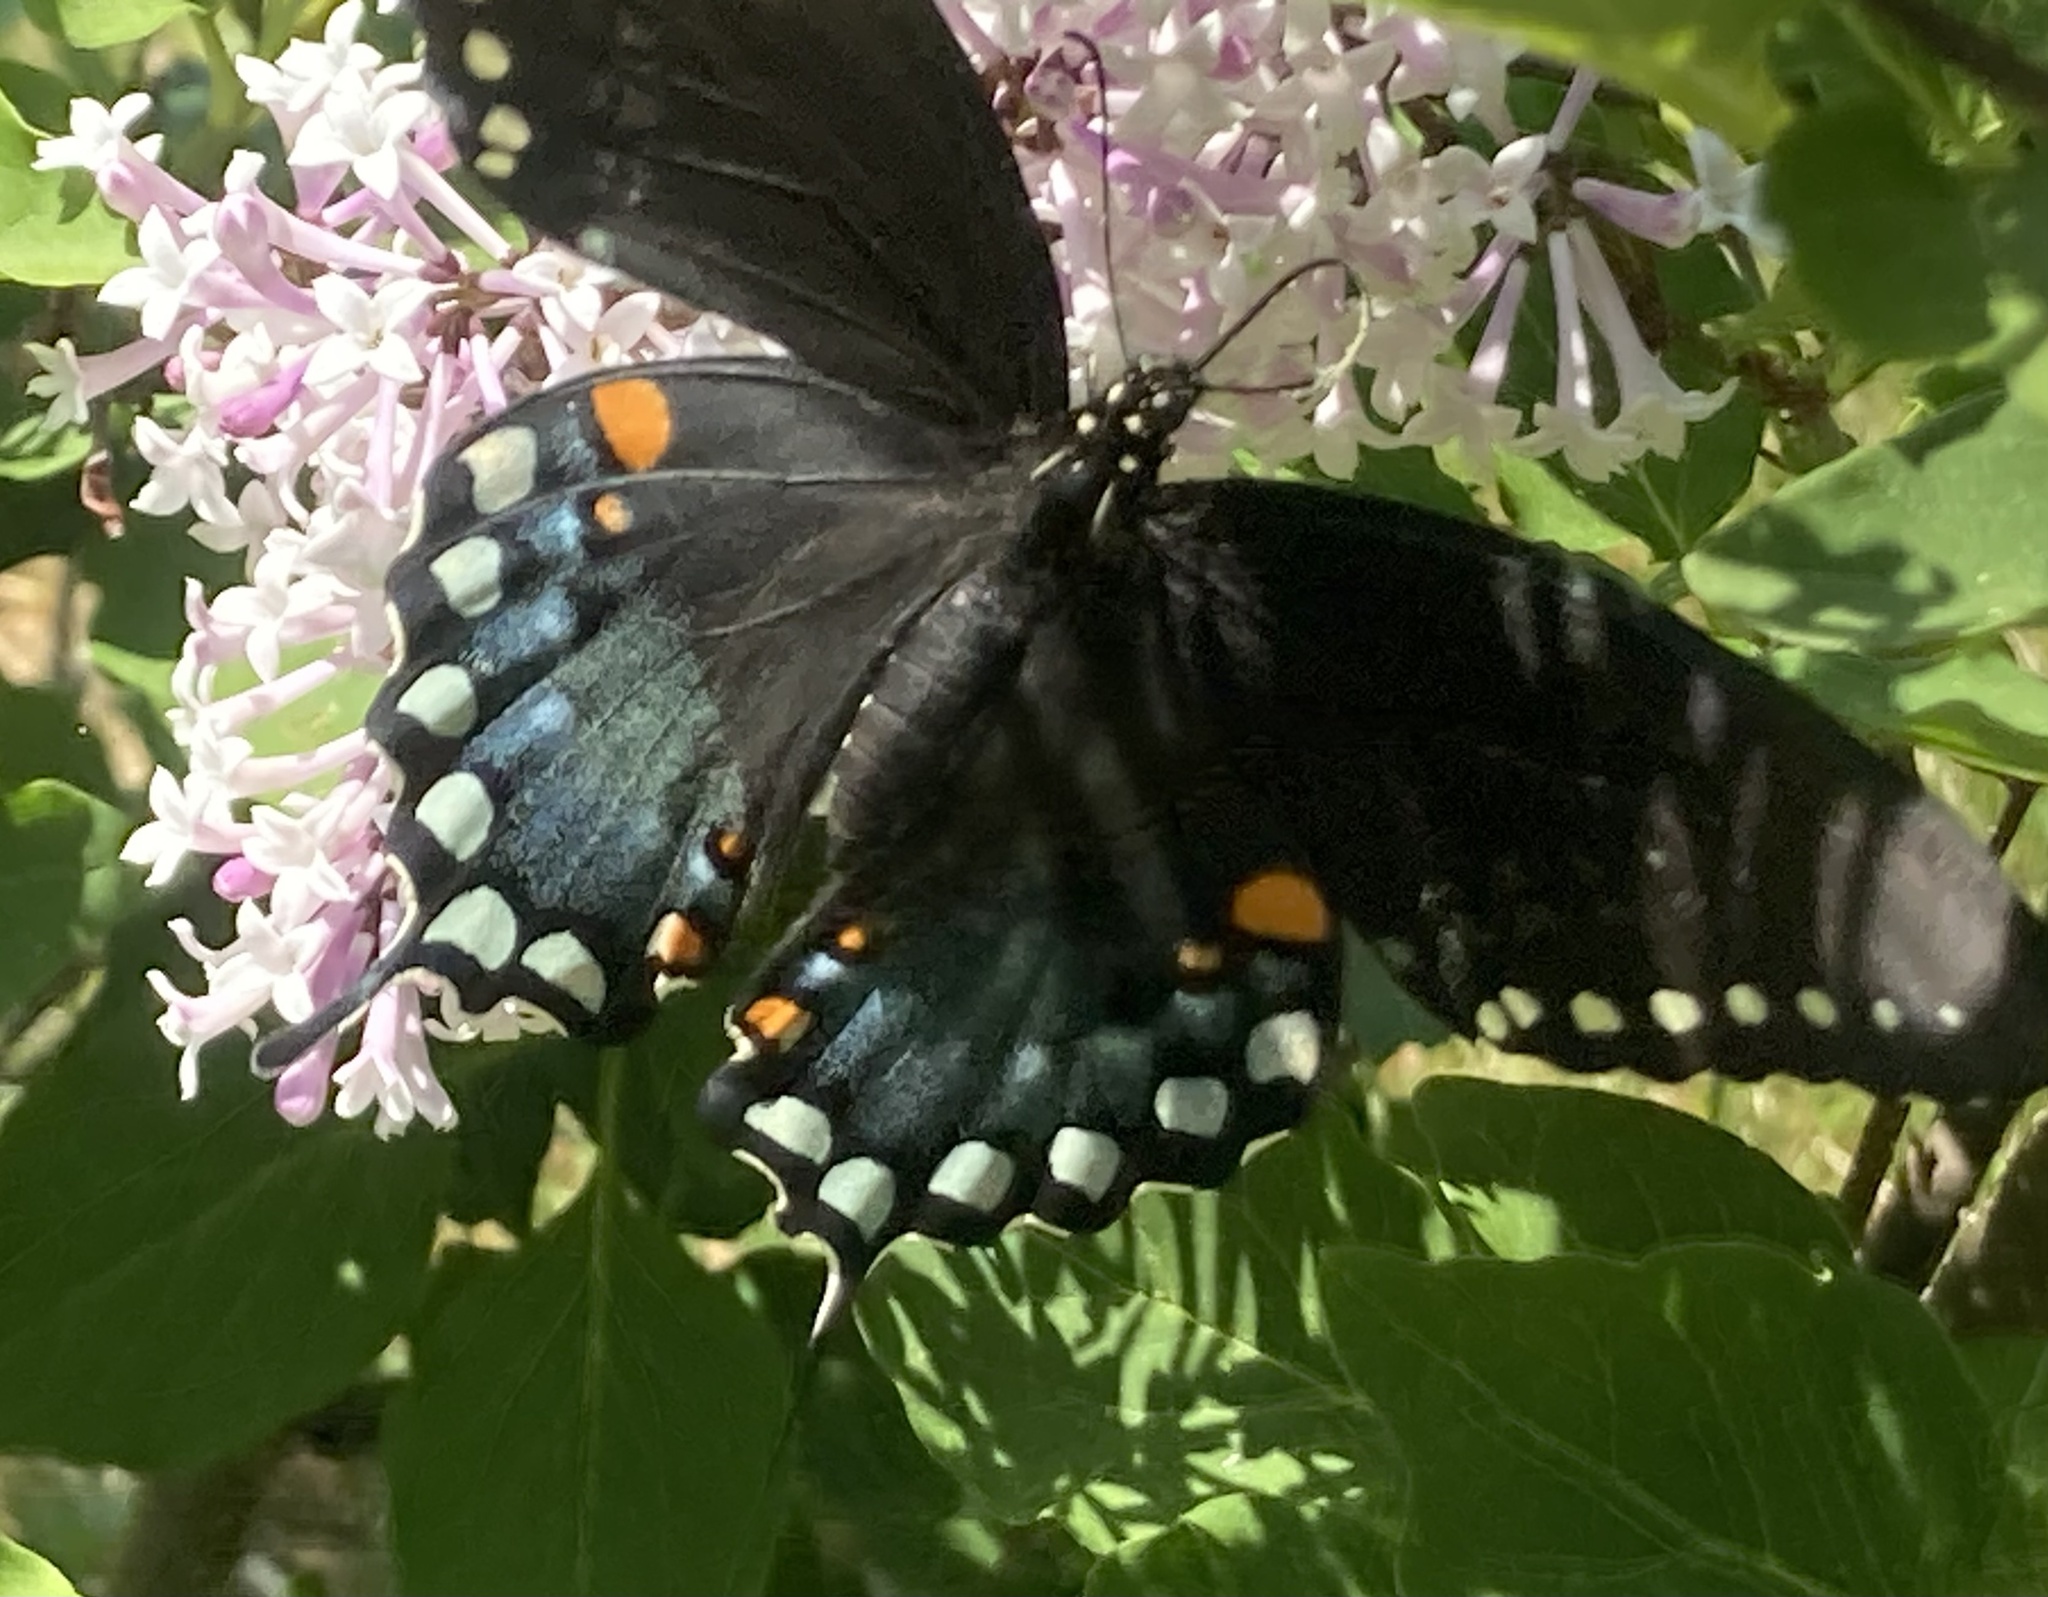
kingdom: Animalia
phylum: Arthropoda
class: Insecta
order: Lepidoptera
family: Papilionidae
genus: Papilio
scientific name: Papilio troilus
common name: Spicebush swallowtail
